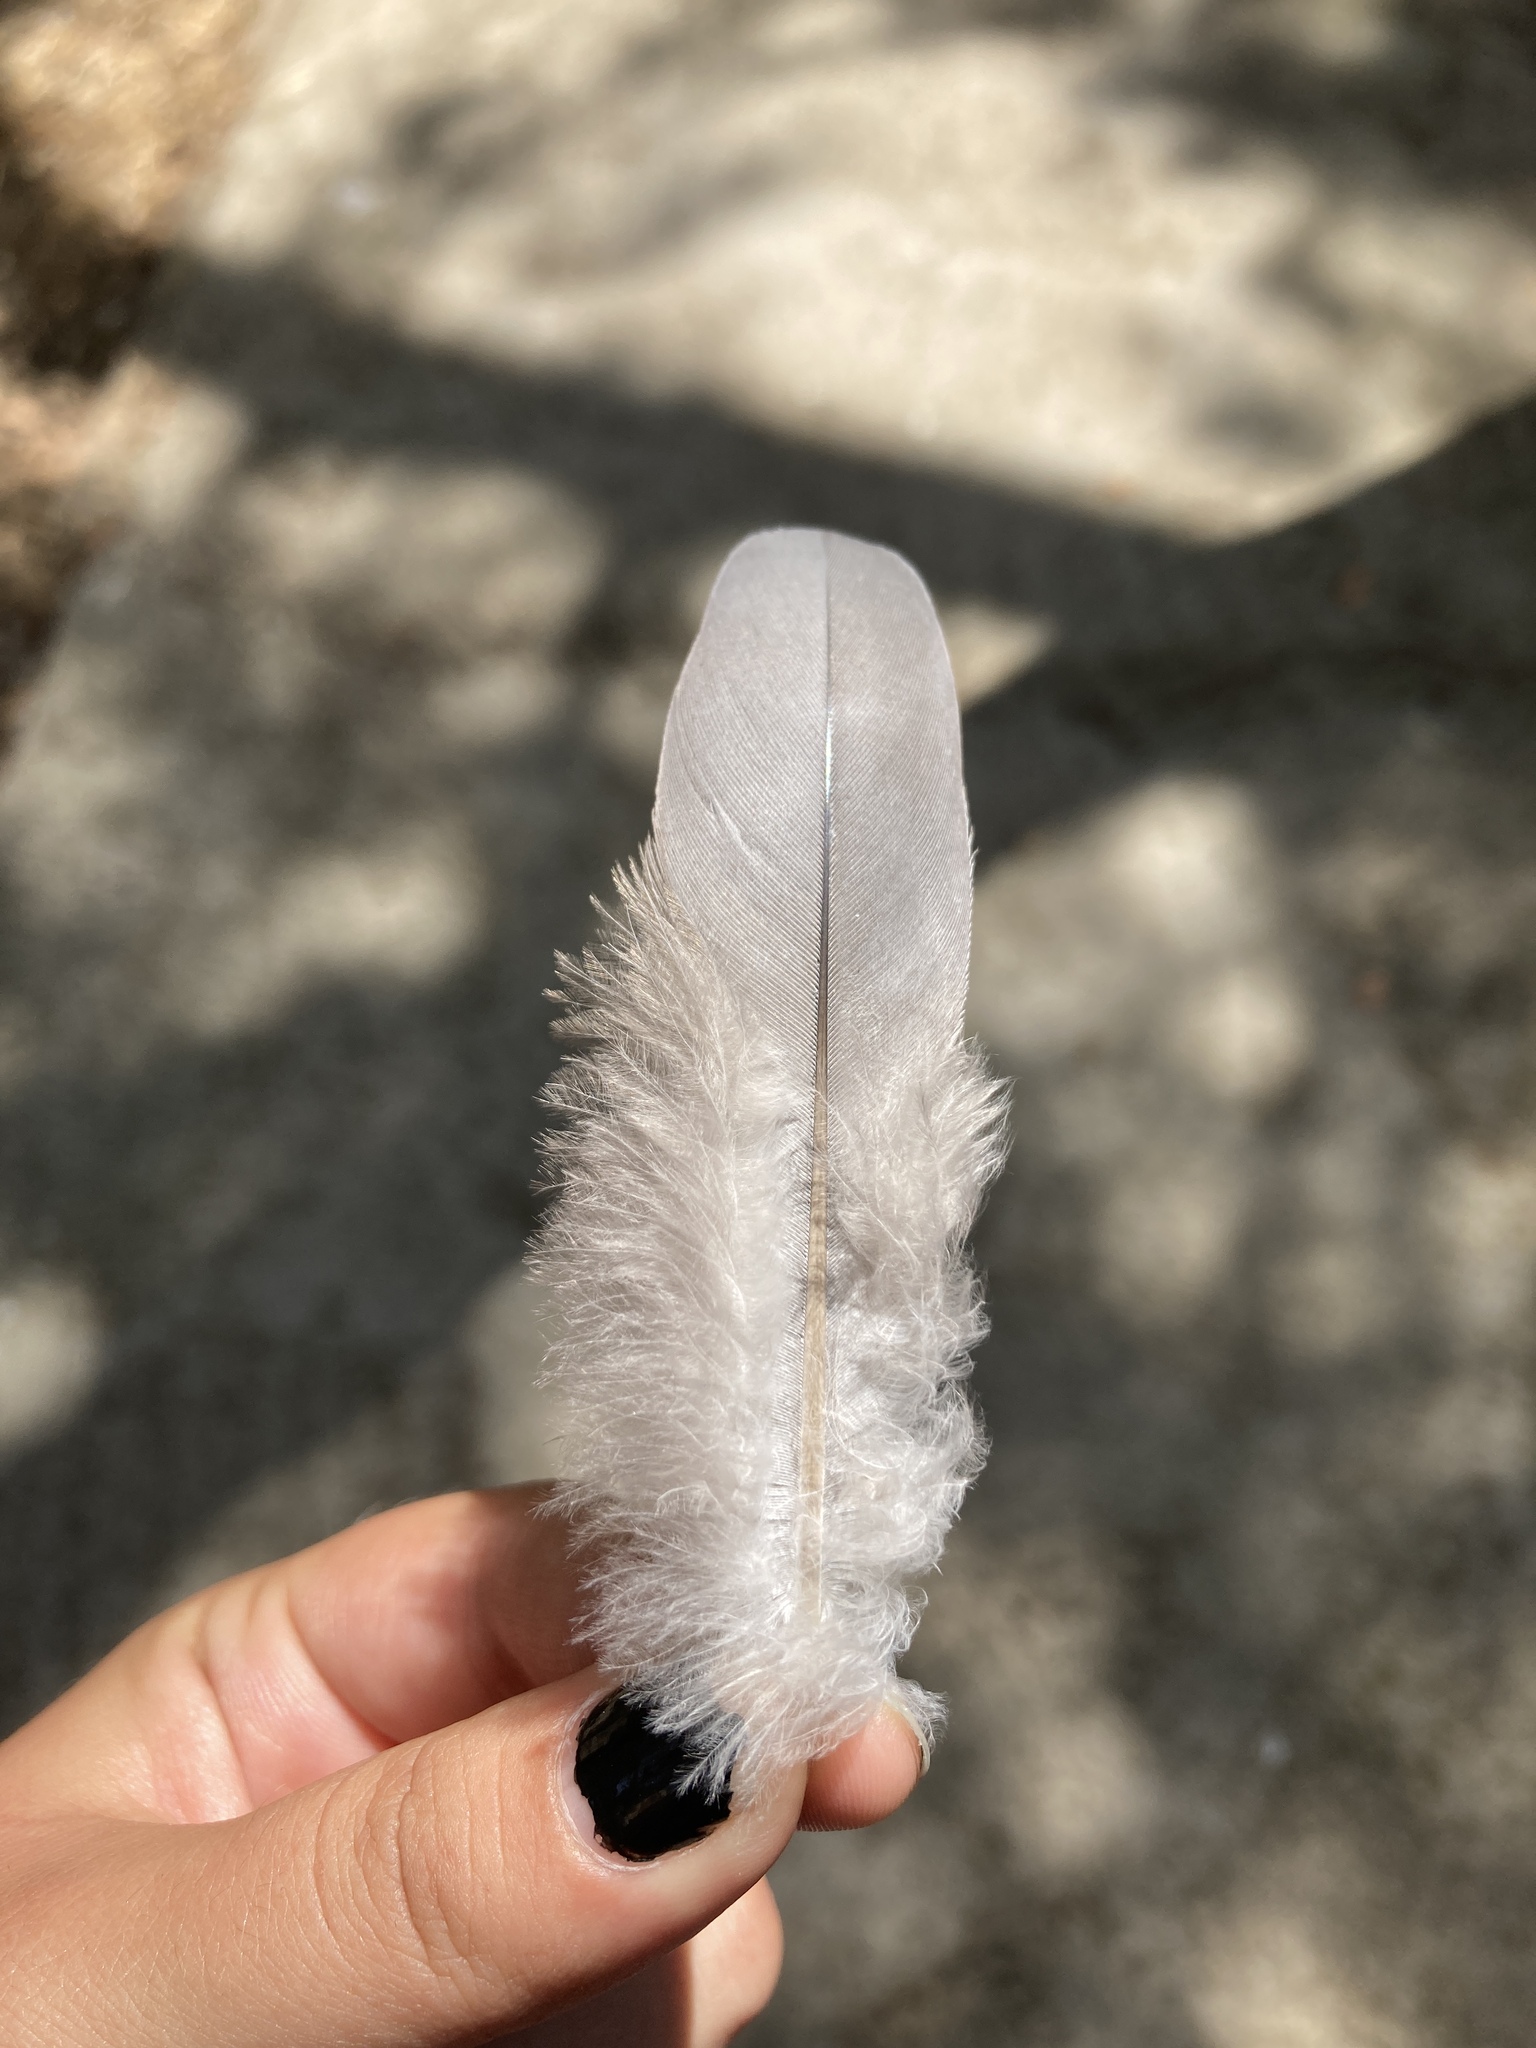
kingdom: Animalia
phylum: Chordata
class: Aves
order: Columbiformes
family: Columbidae
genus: Columba
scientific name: Columba palumbus
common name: Common wood pigeon
